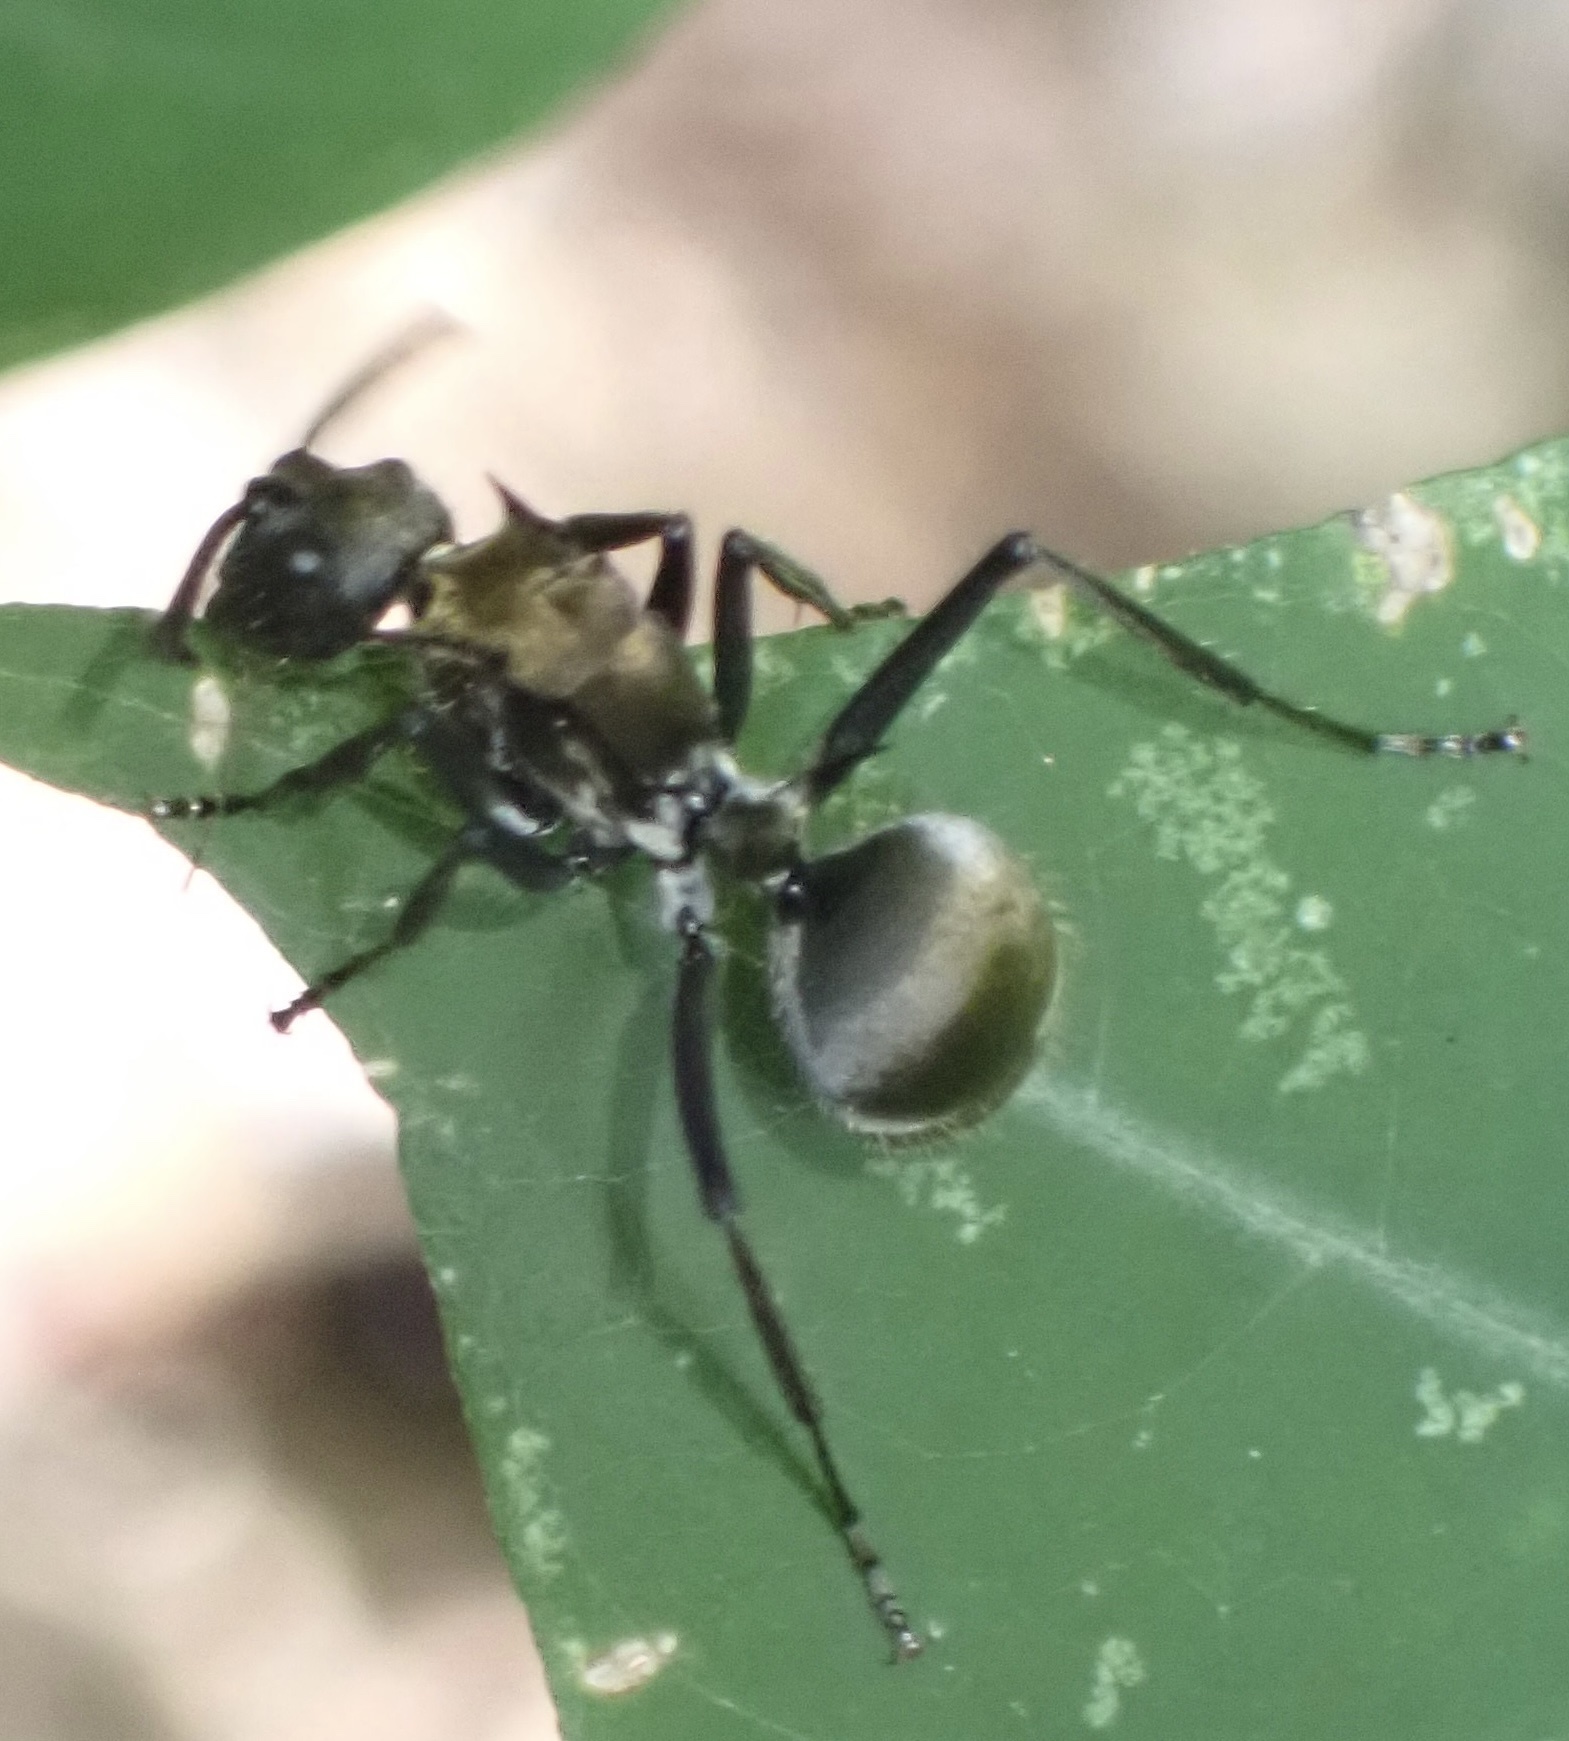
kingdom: Animalia
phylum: Arthropoda
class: Insecta
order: Hymenoptera
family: Formicidae
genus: Polyrhachis
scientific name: Polyrhachis militaris
